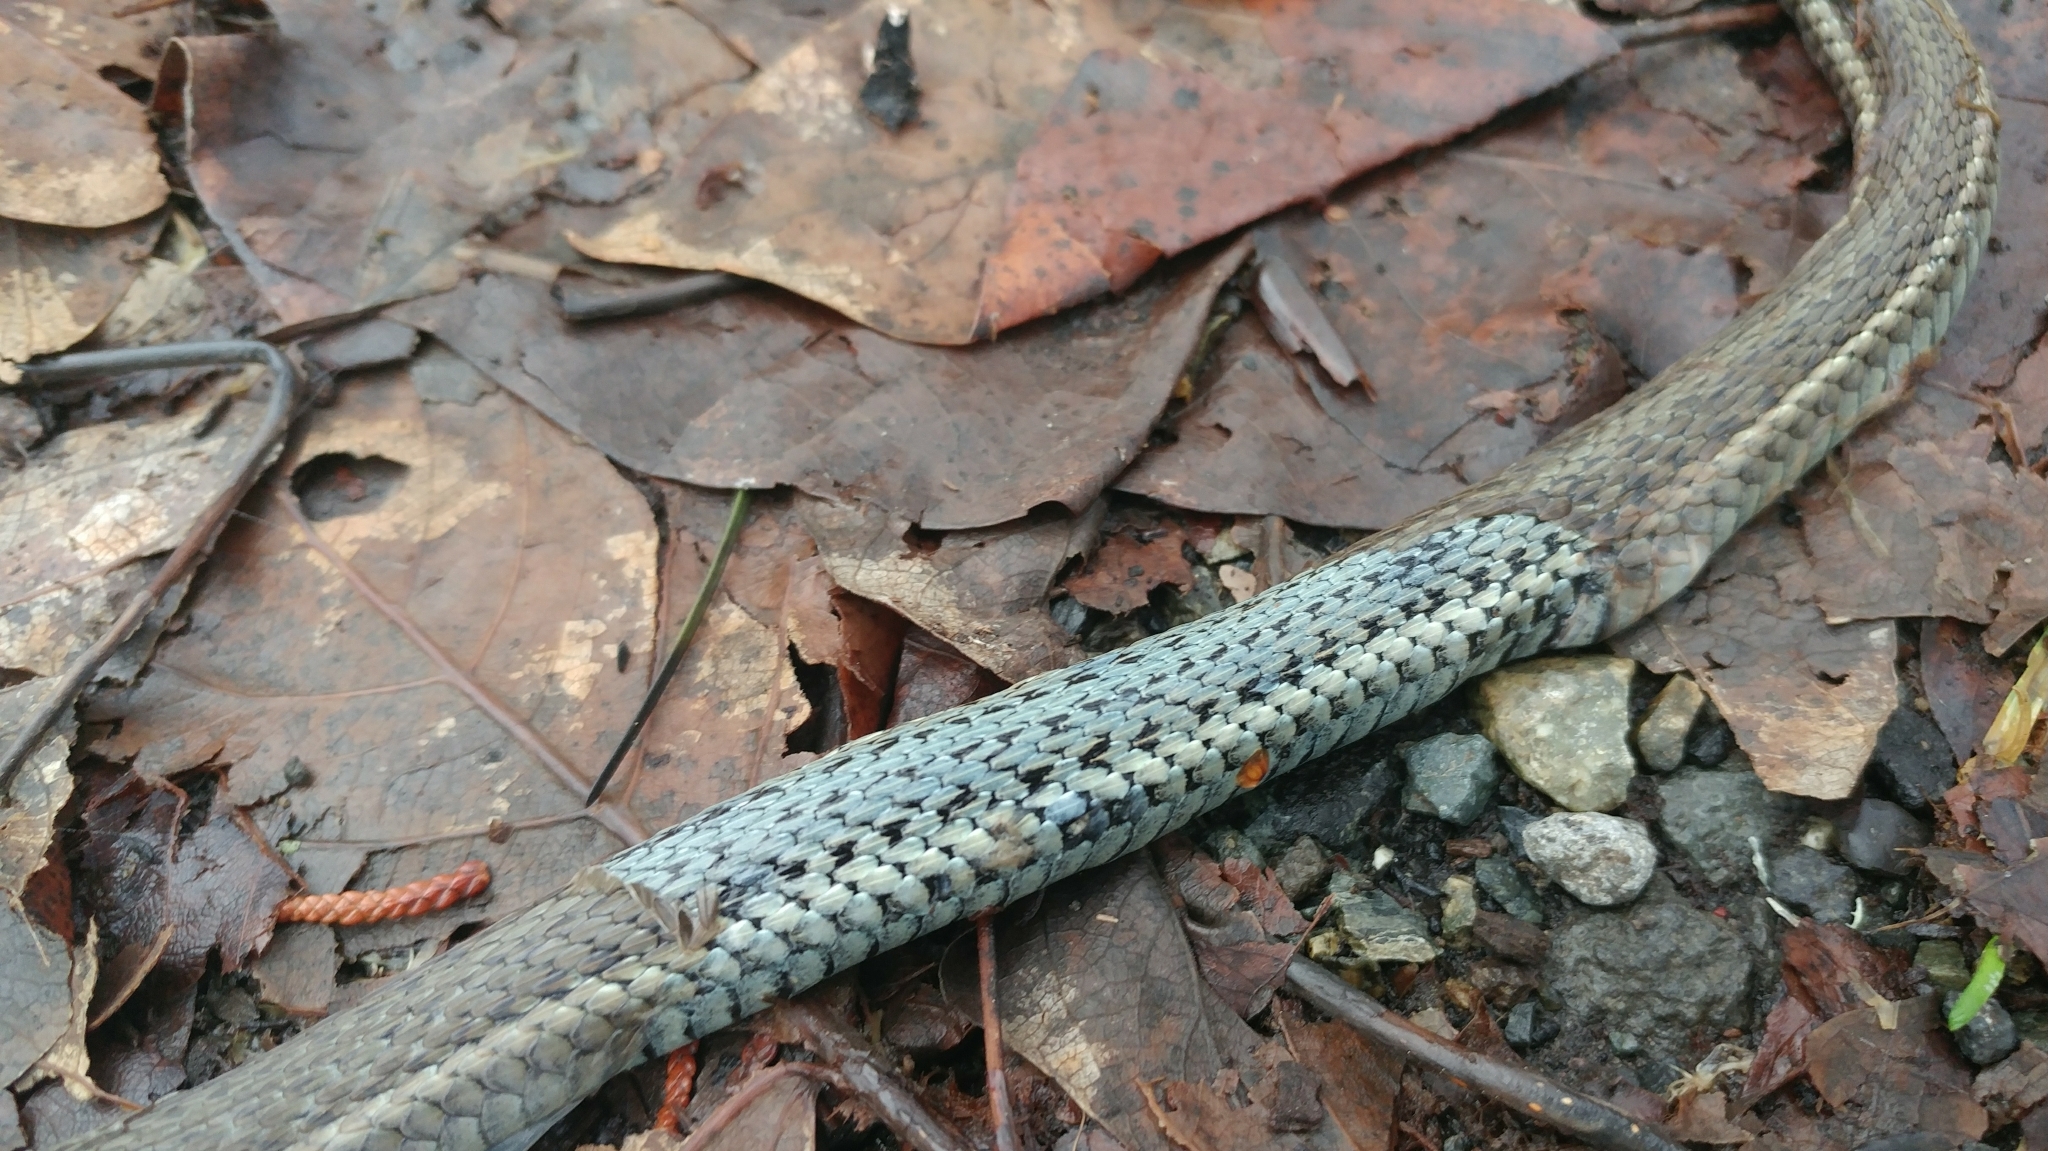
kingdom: Animalia
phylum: Chordata
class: Squamata
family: Colubridae
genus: Thamnophis
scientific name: Thamnophis ordinoides
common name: Northwestern garter snake
